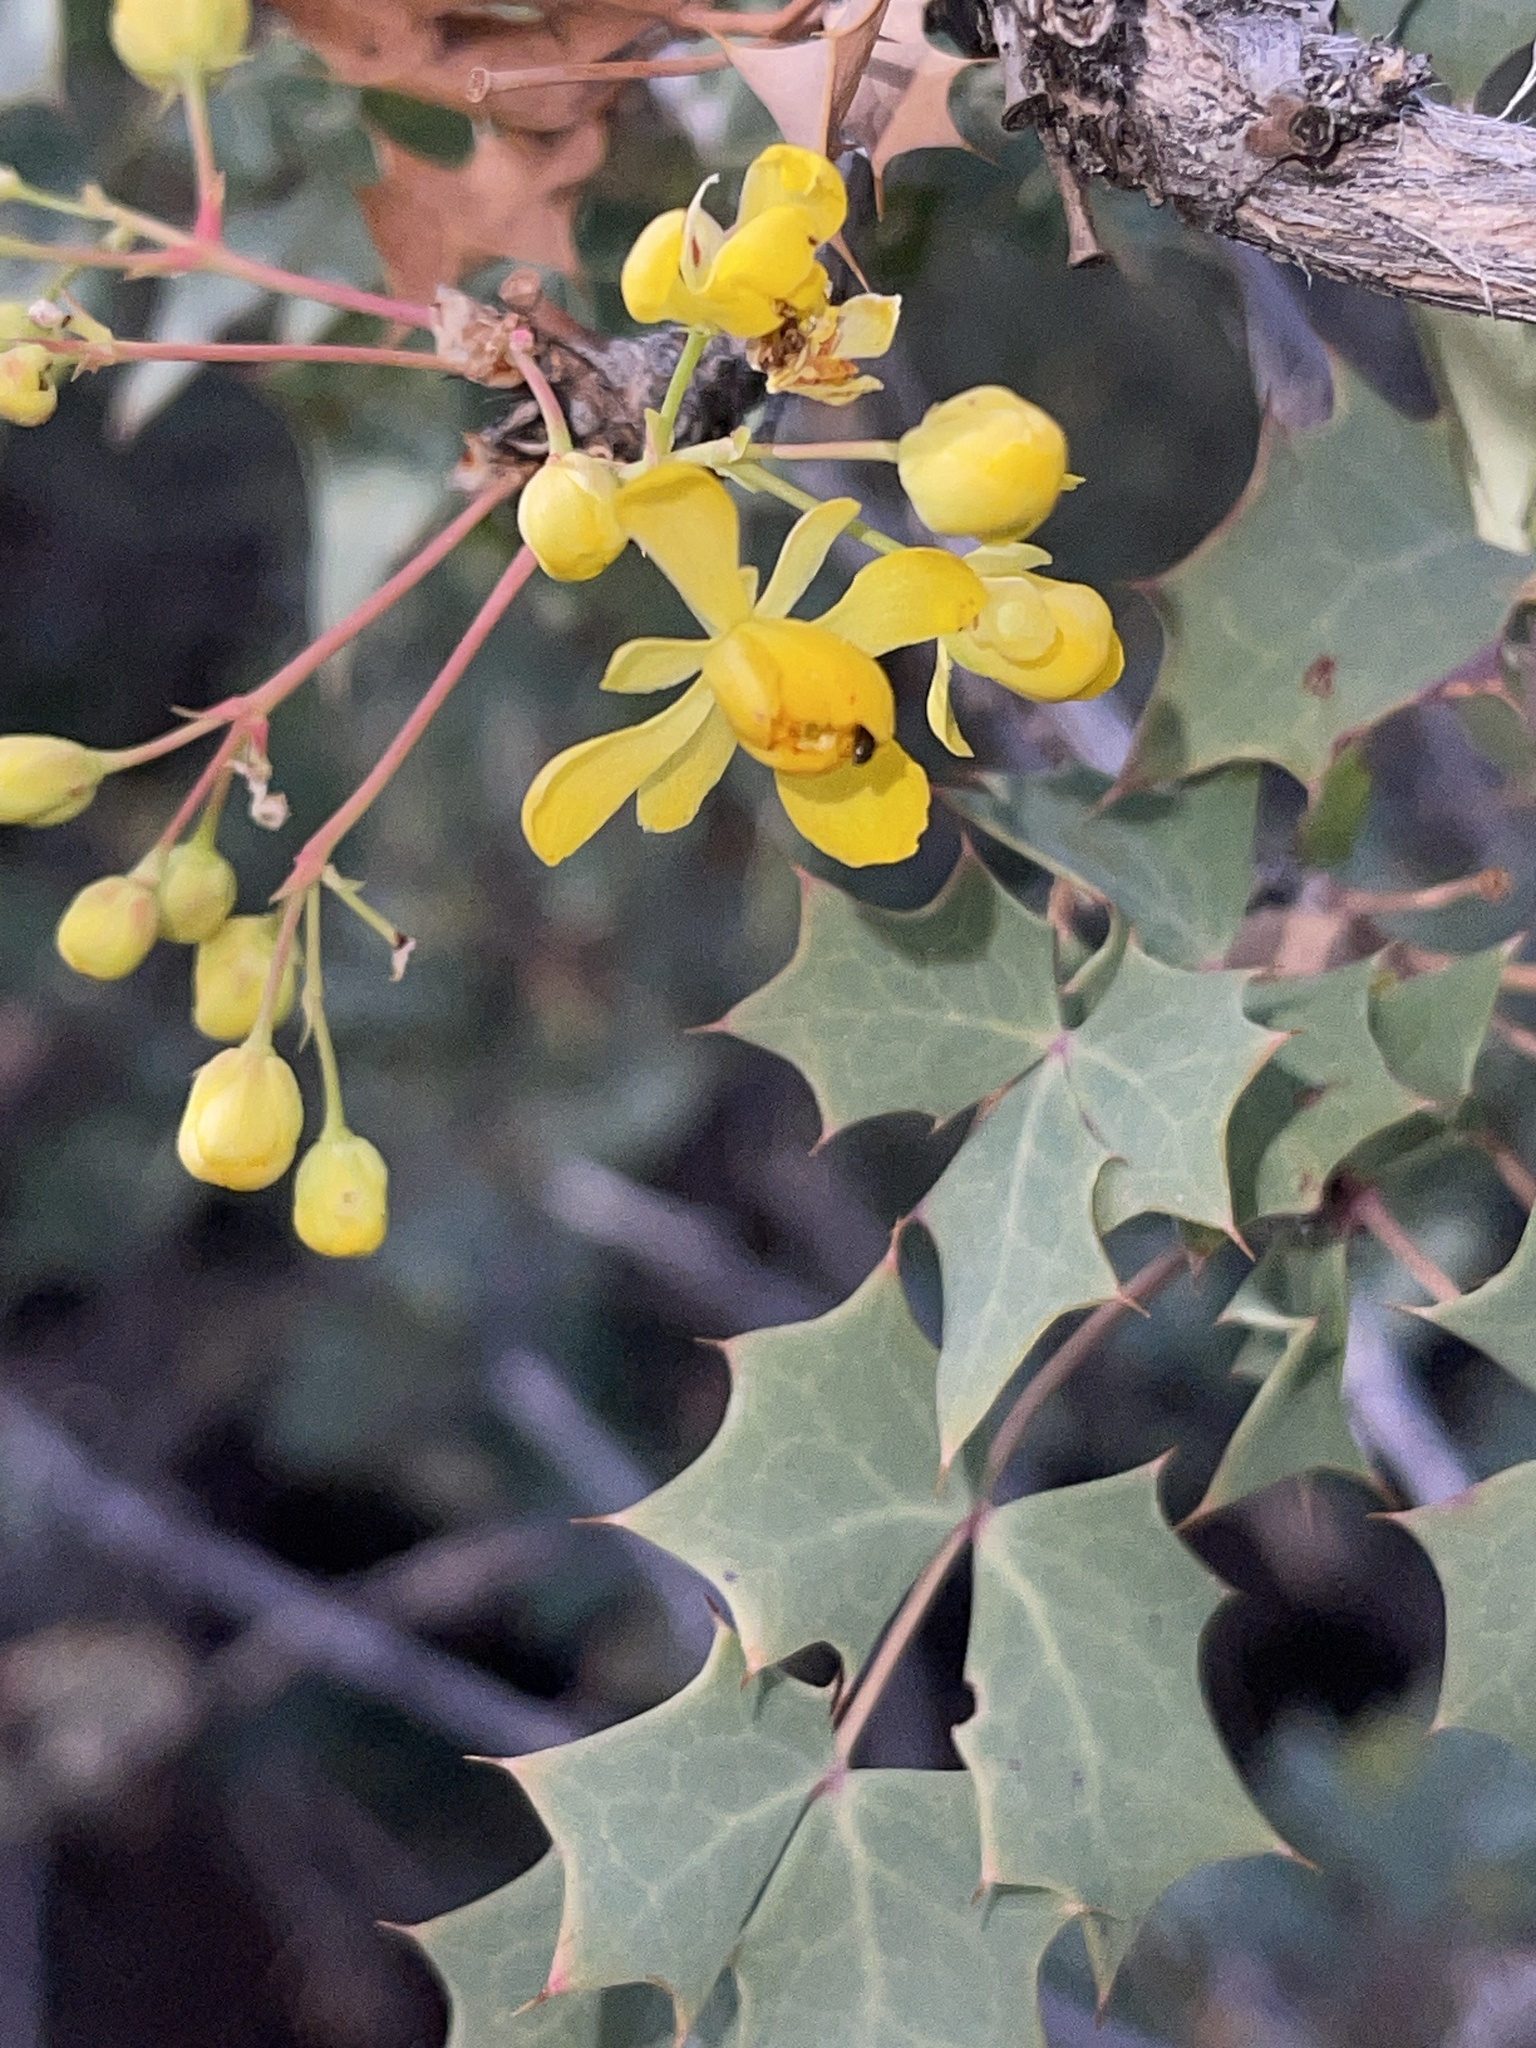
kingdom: Plantae
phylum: Tracheophyta
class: Magnoliopsida
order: Ranunculales
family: Berberidaceae
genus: Alloberberis
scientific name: Alloberberis fremontii
